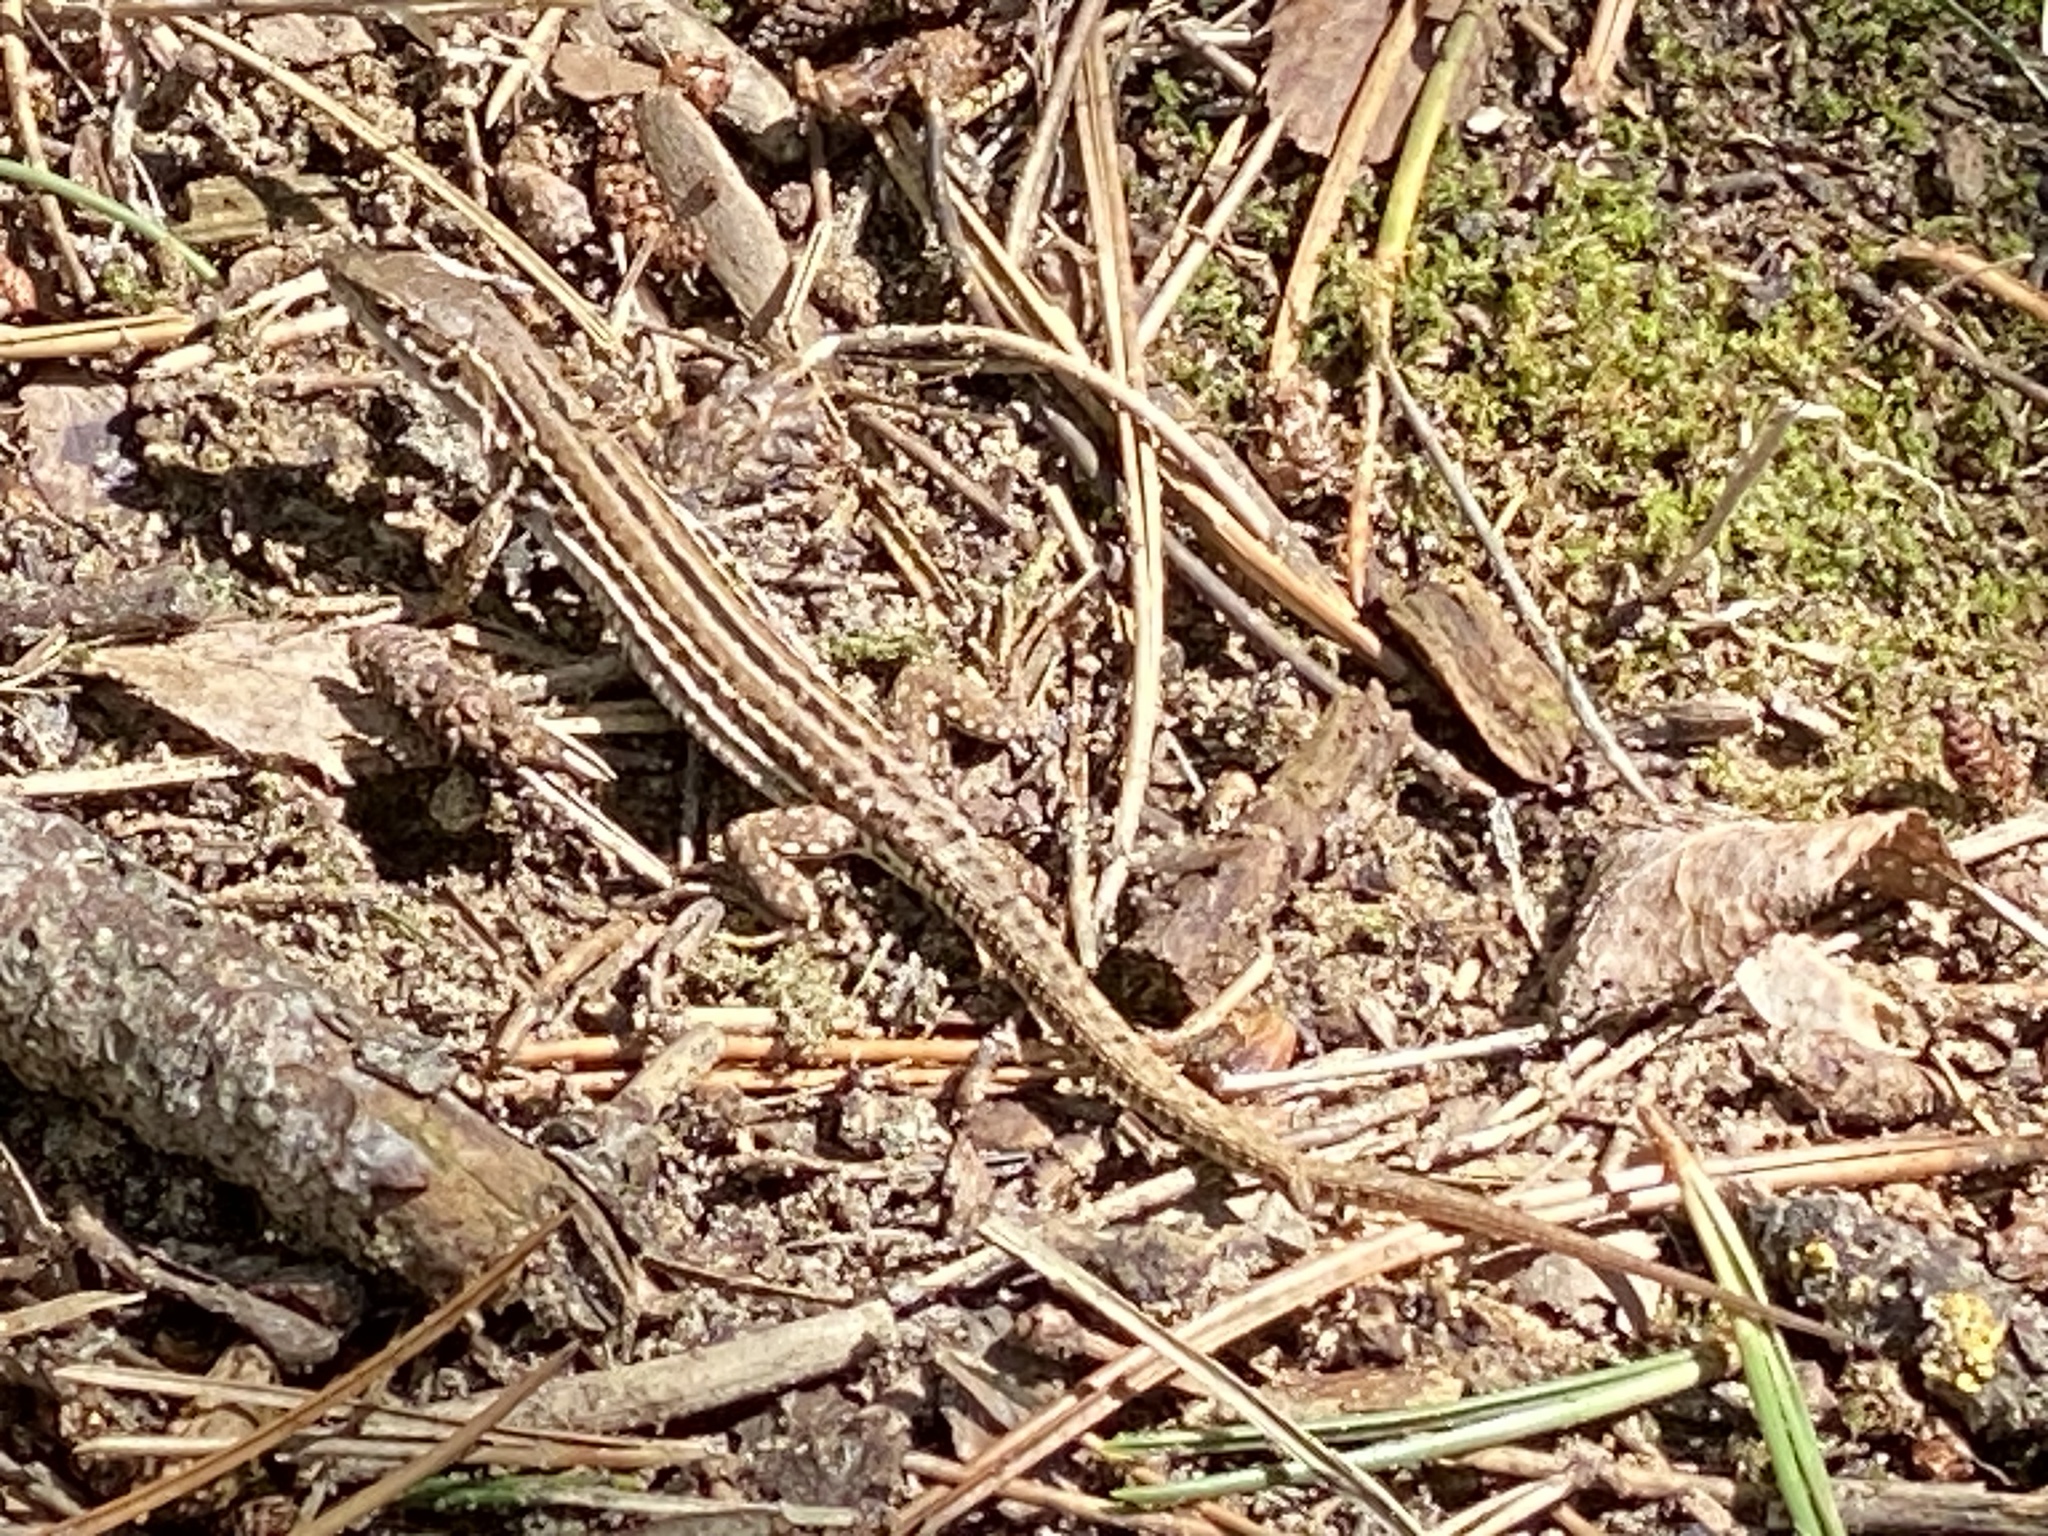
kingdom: Animalia
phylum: Chordata
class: Squamata
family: Lacertidae
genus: Podarcis
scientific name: Podarcis siculus
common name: Italian wall lizard
